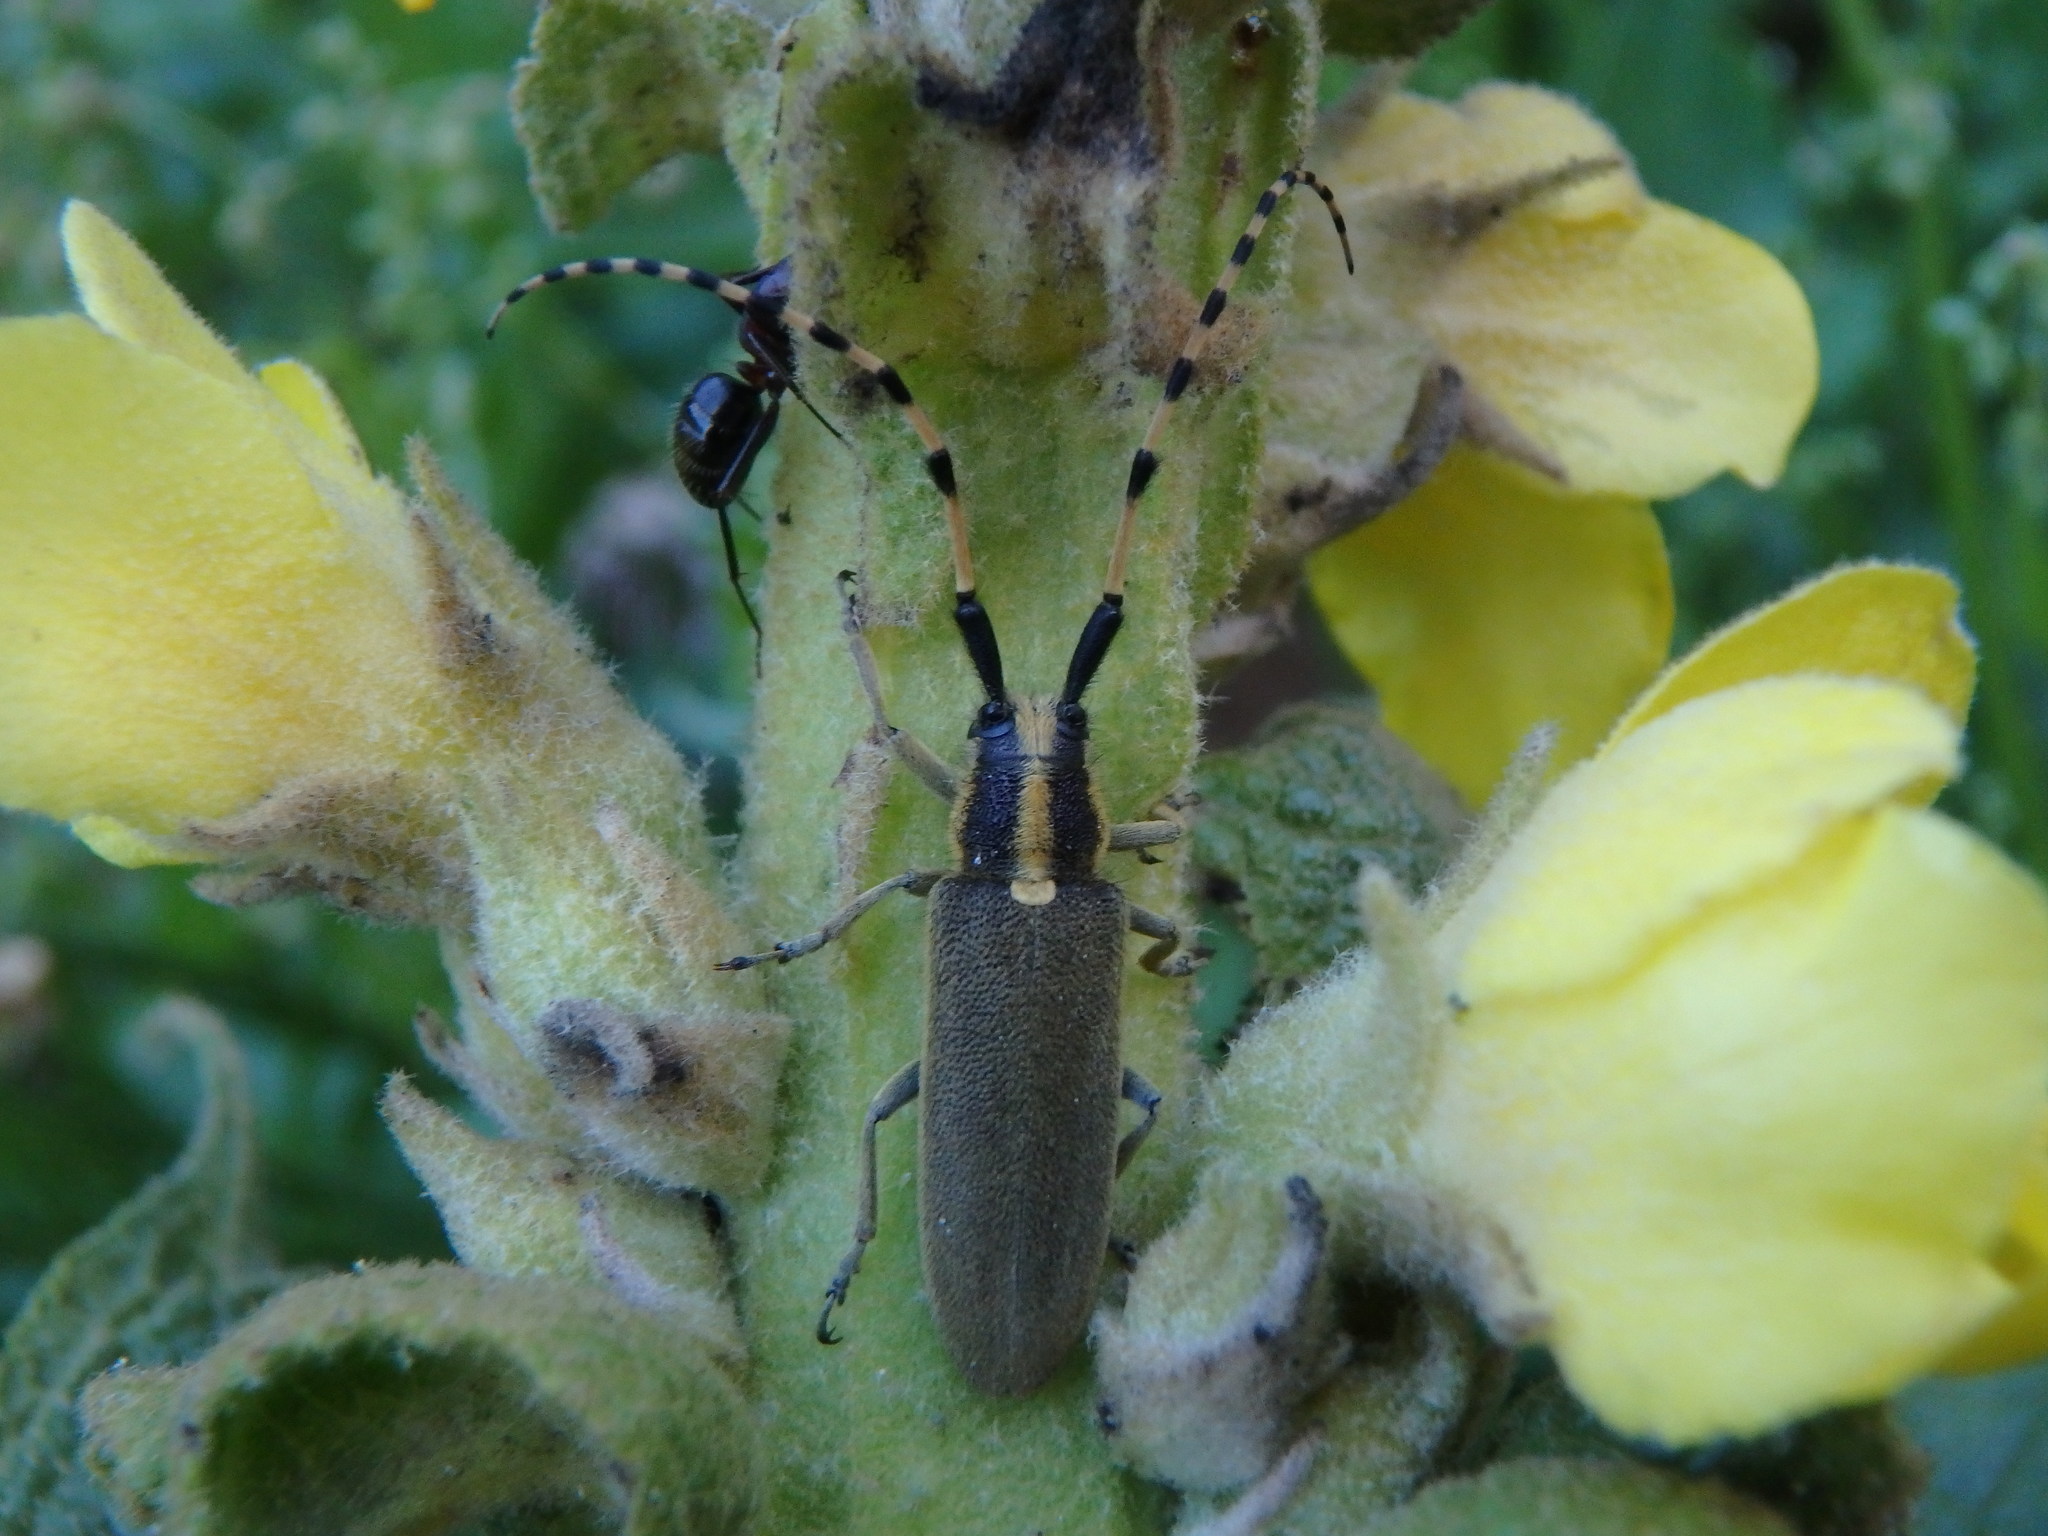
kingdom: Animalia
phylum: Arthropoda
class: Insecta
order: Coleoptera
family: Cerambycidae
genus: Agapanthia
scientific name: Agapanthia kirbyi
